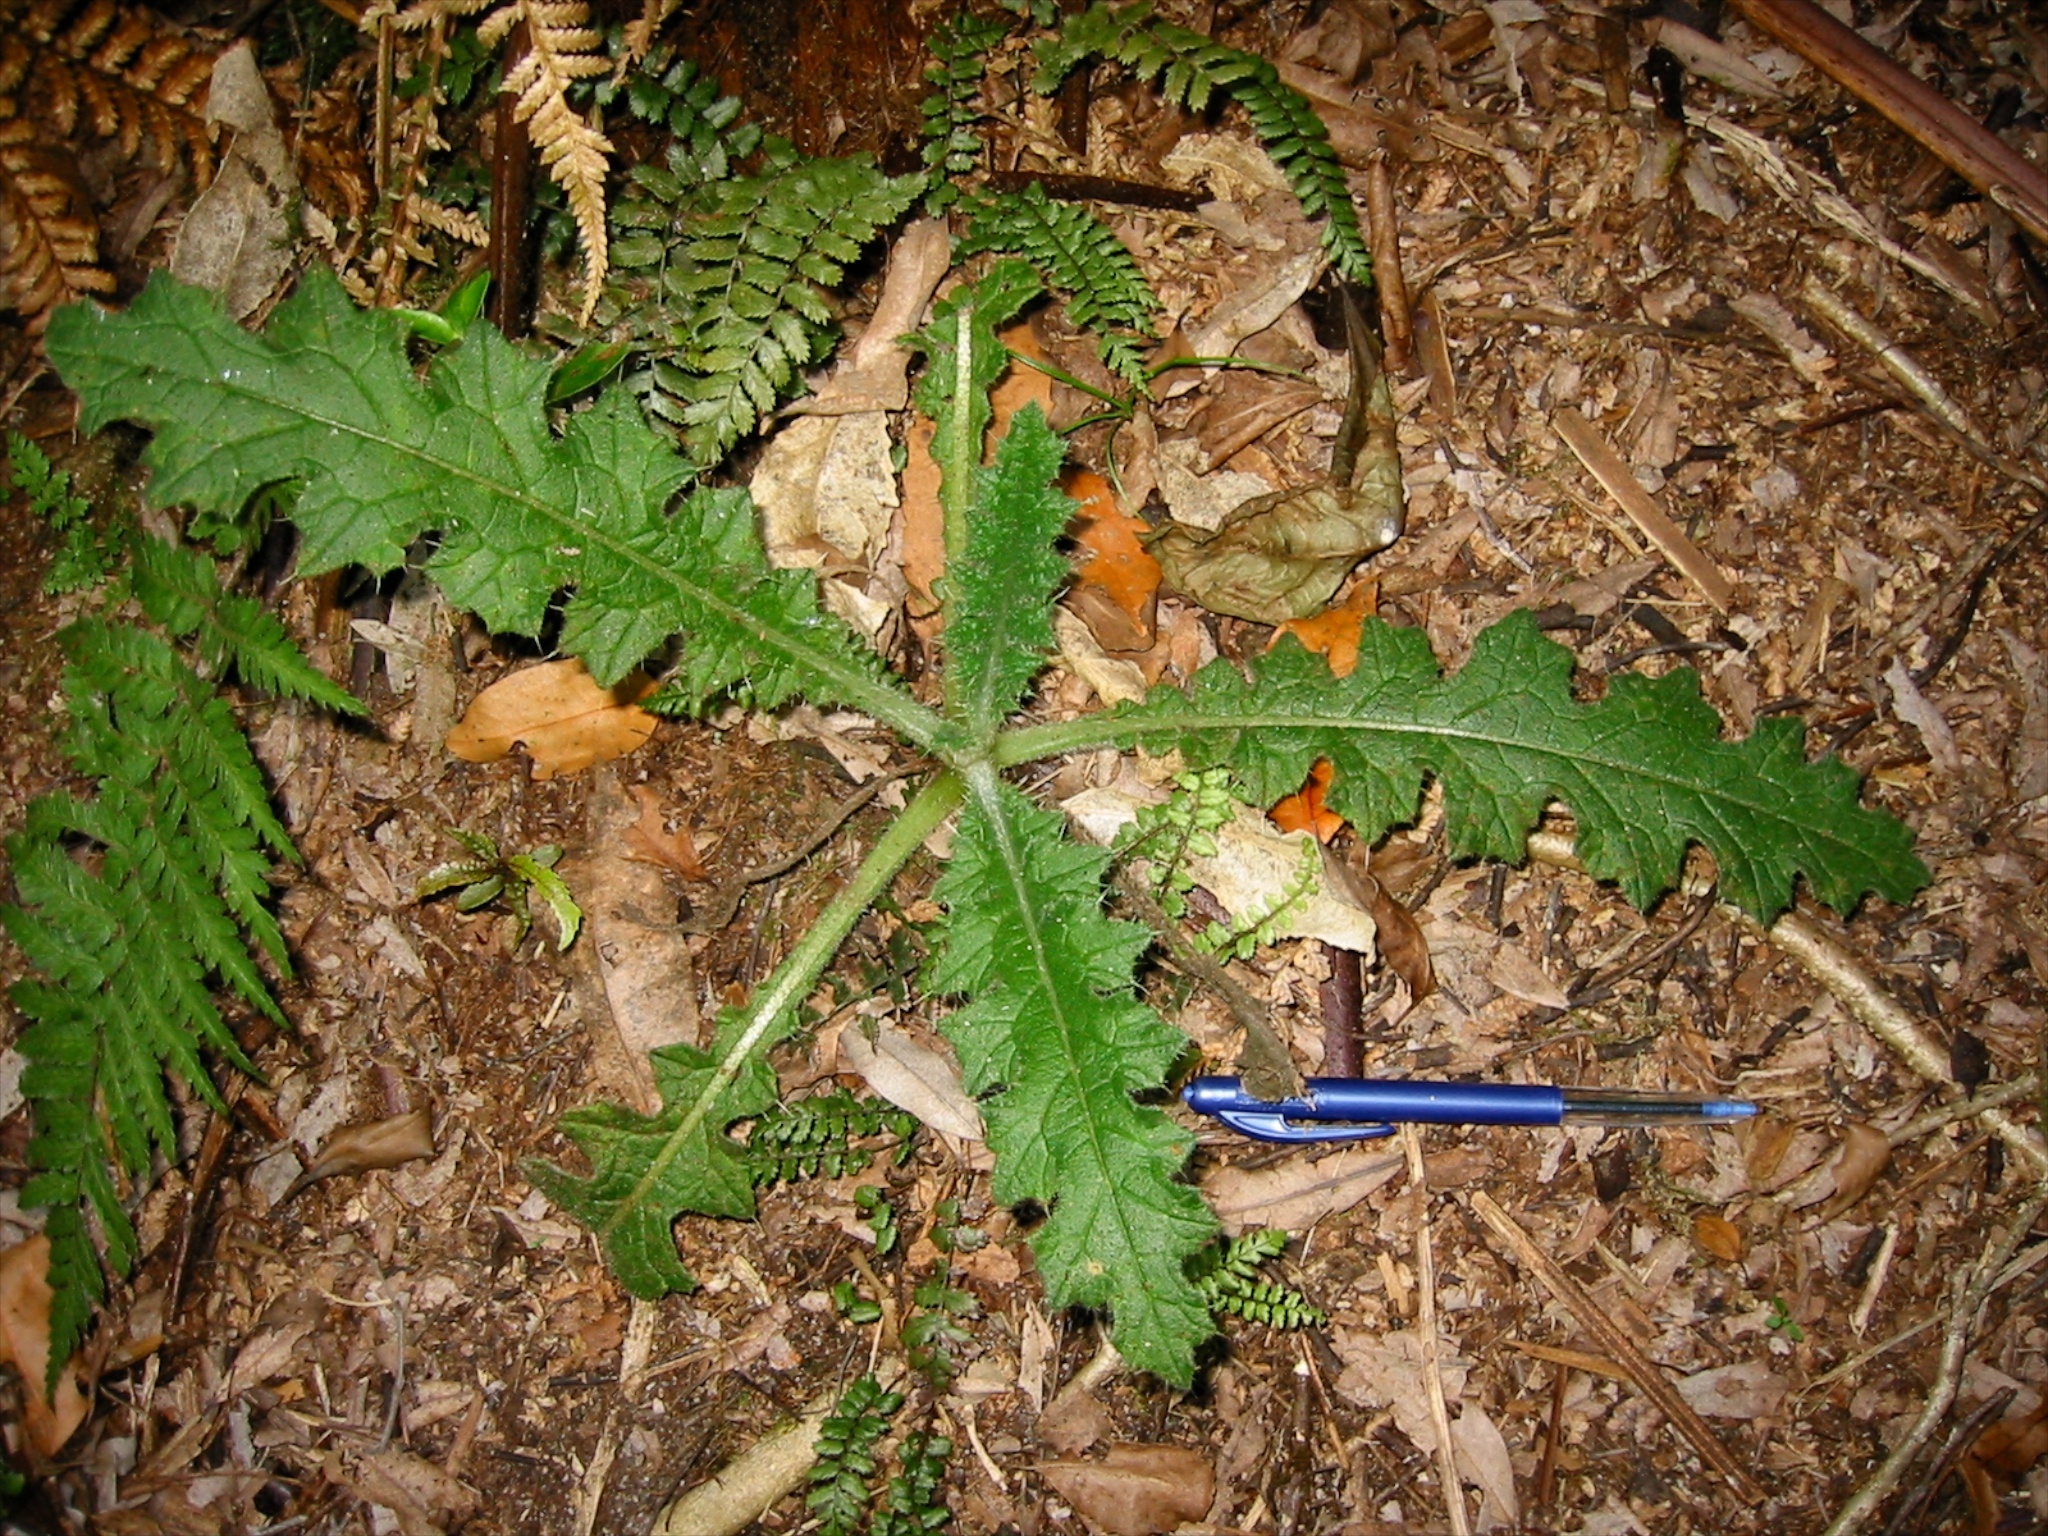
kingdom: Plantae
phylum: Tracheophyta
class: Magnoliopsida
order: Asterales
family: Asteraceae
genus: Cirsium
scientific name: Cirsium vulgare
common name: Bull thistle
